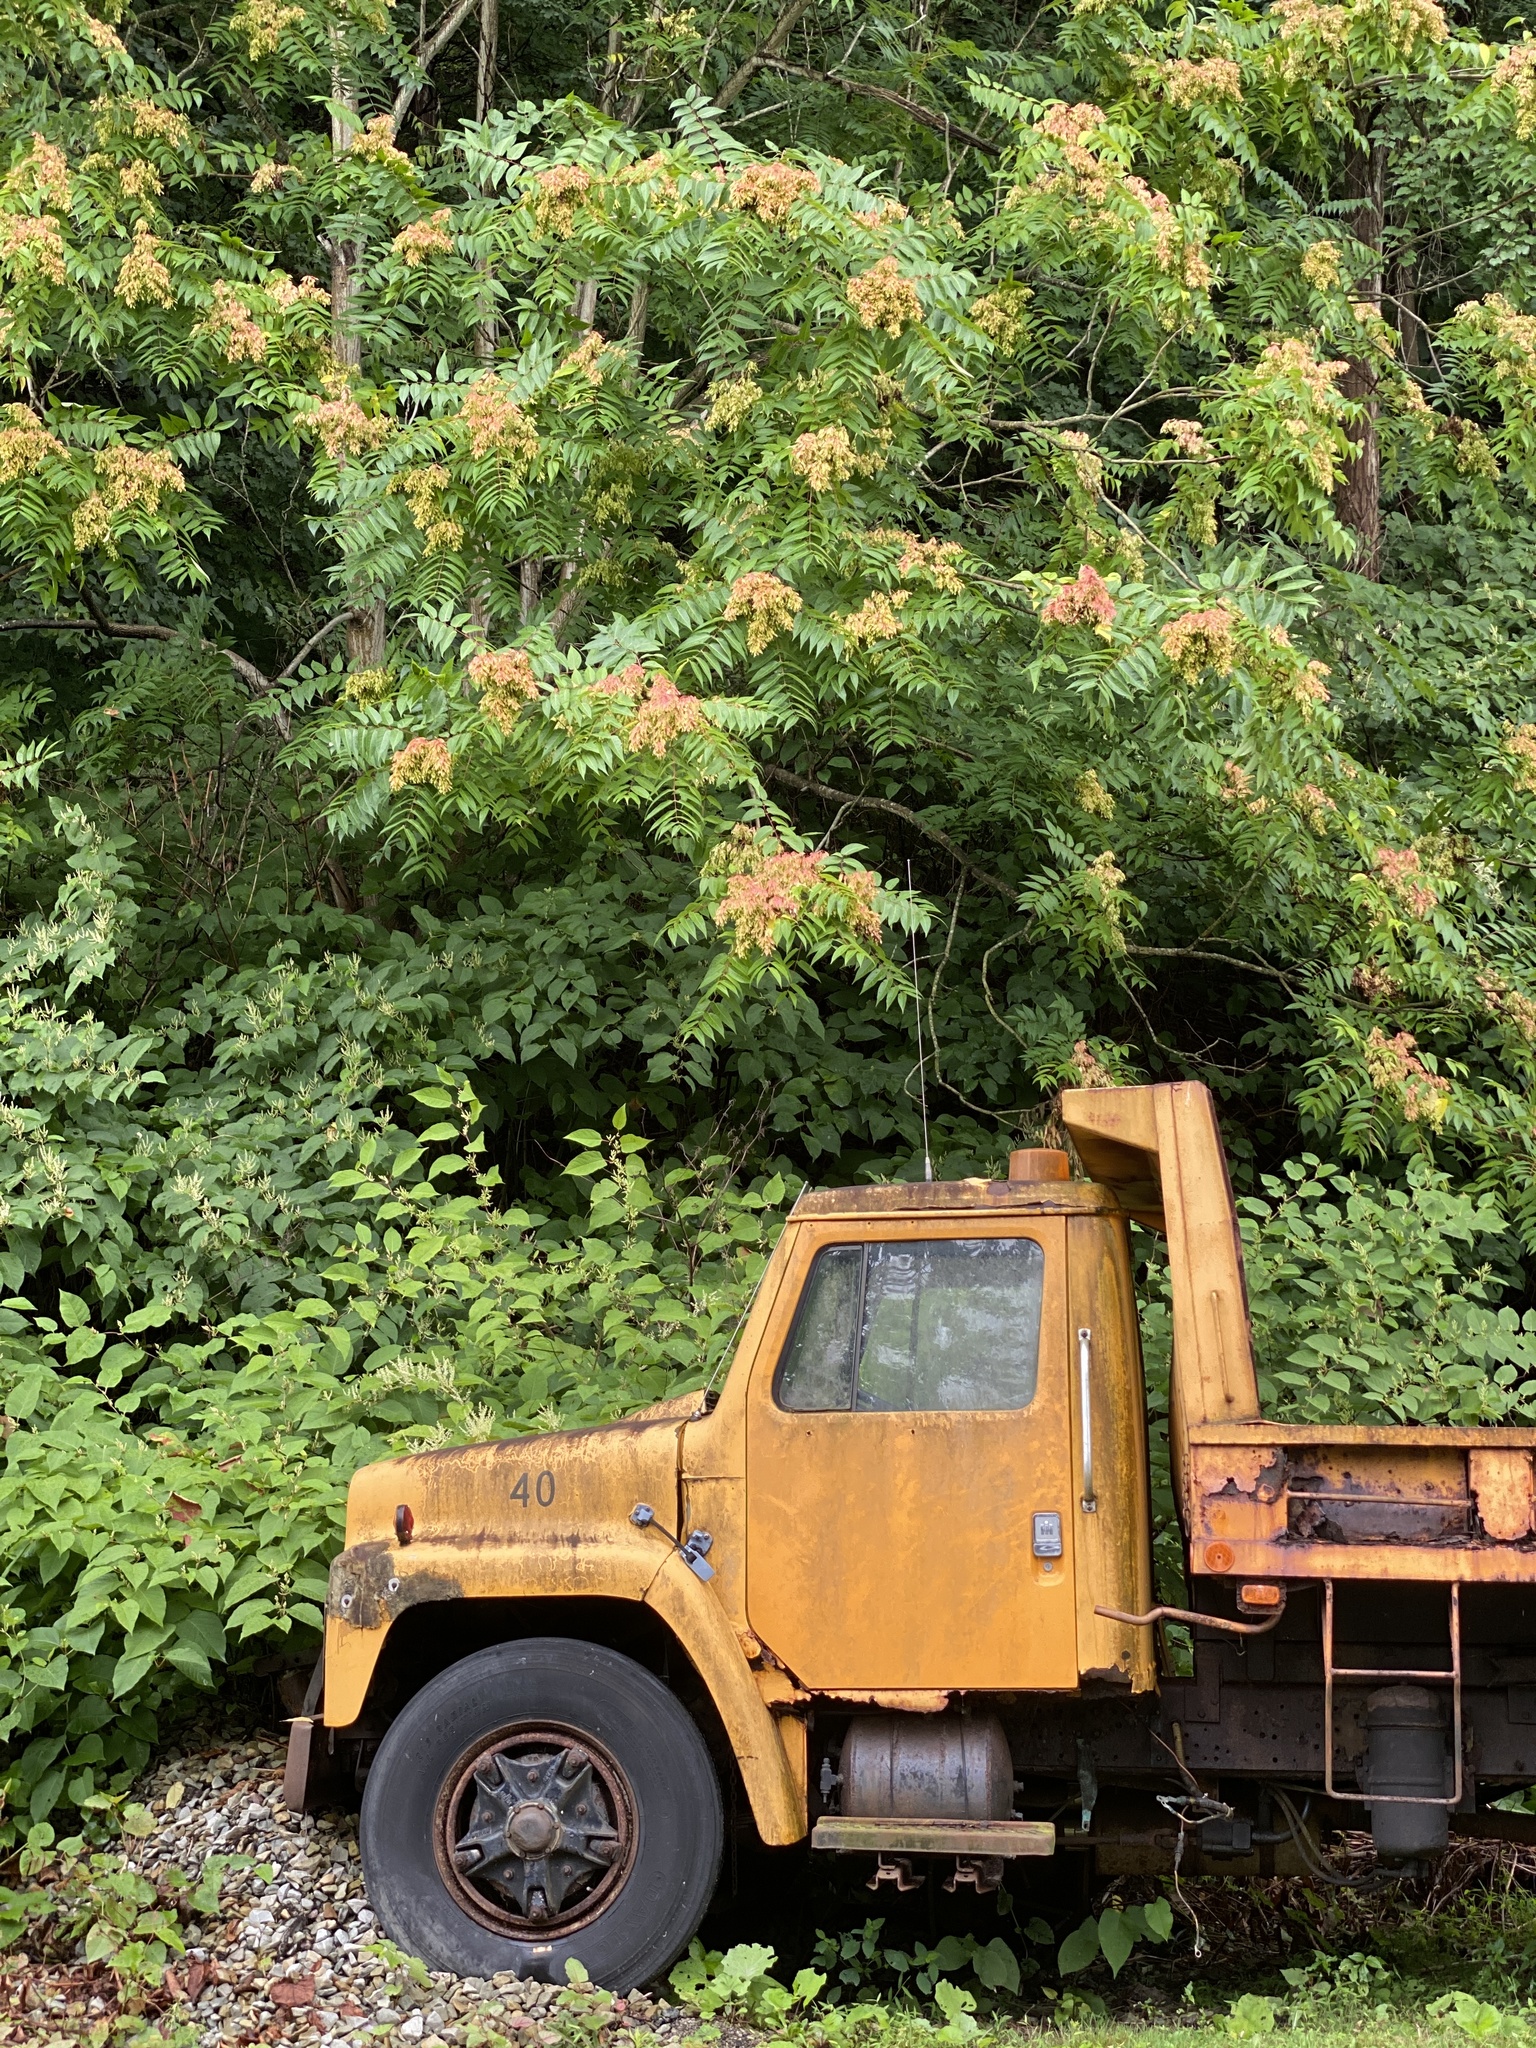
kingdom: Plantae
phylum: Tracheophyta
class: Magnoliopsida
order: Sapindales
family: Simaroubaceae
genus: Ailanthus
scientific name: Ailanthus altissima
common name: Tree-of-heaven
